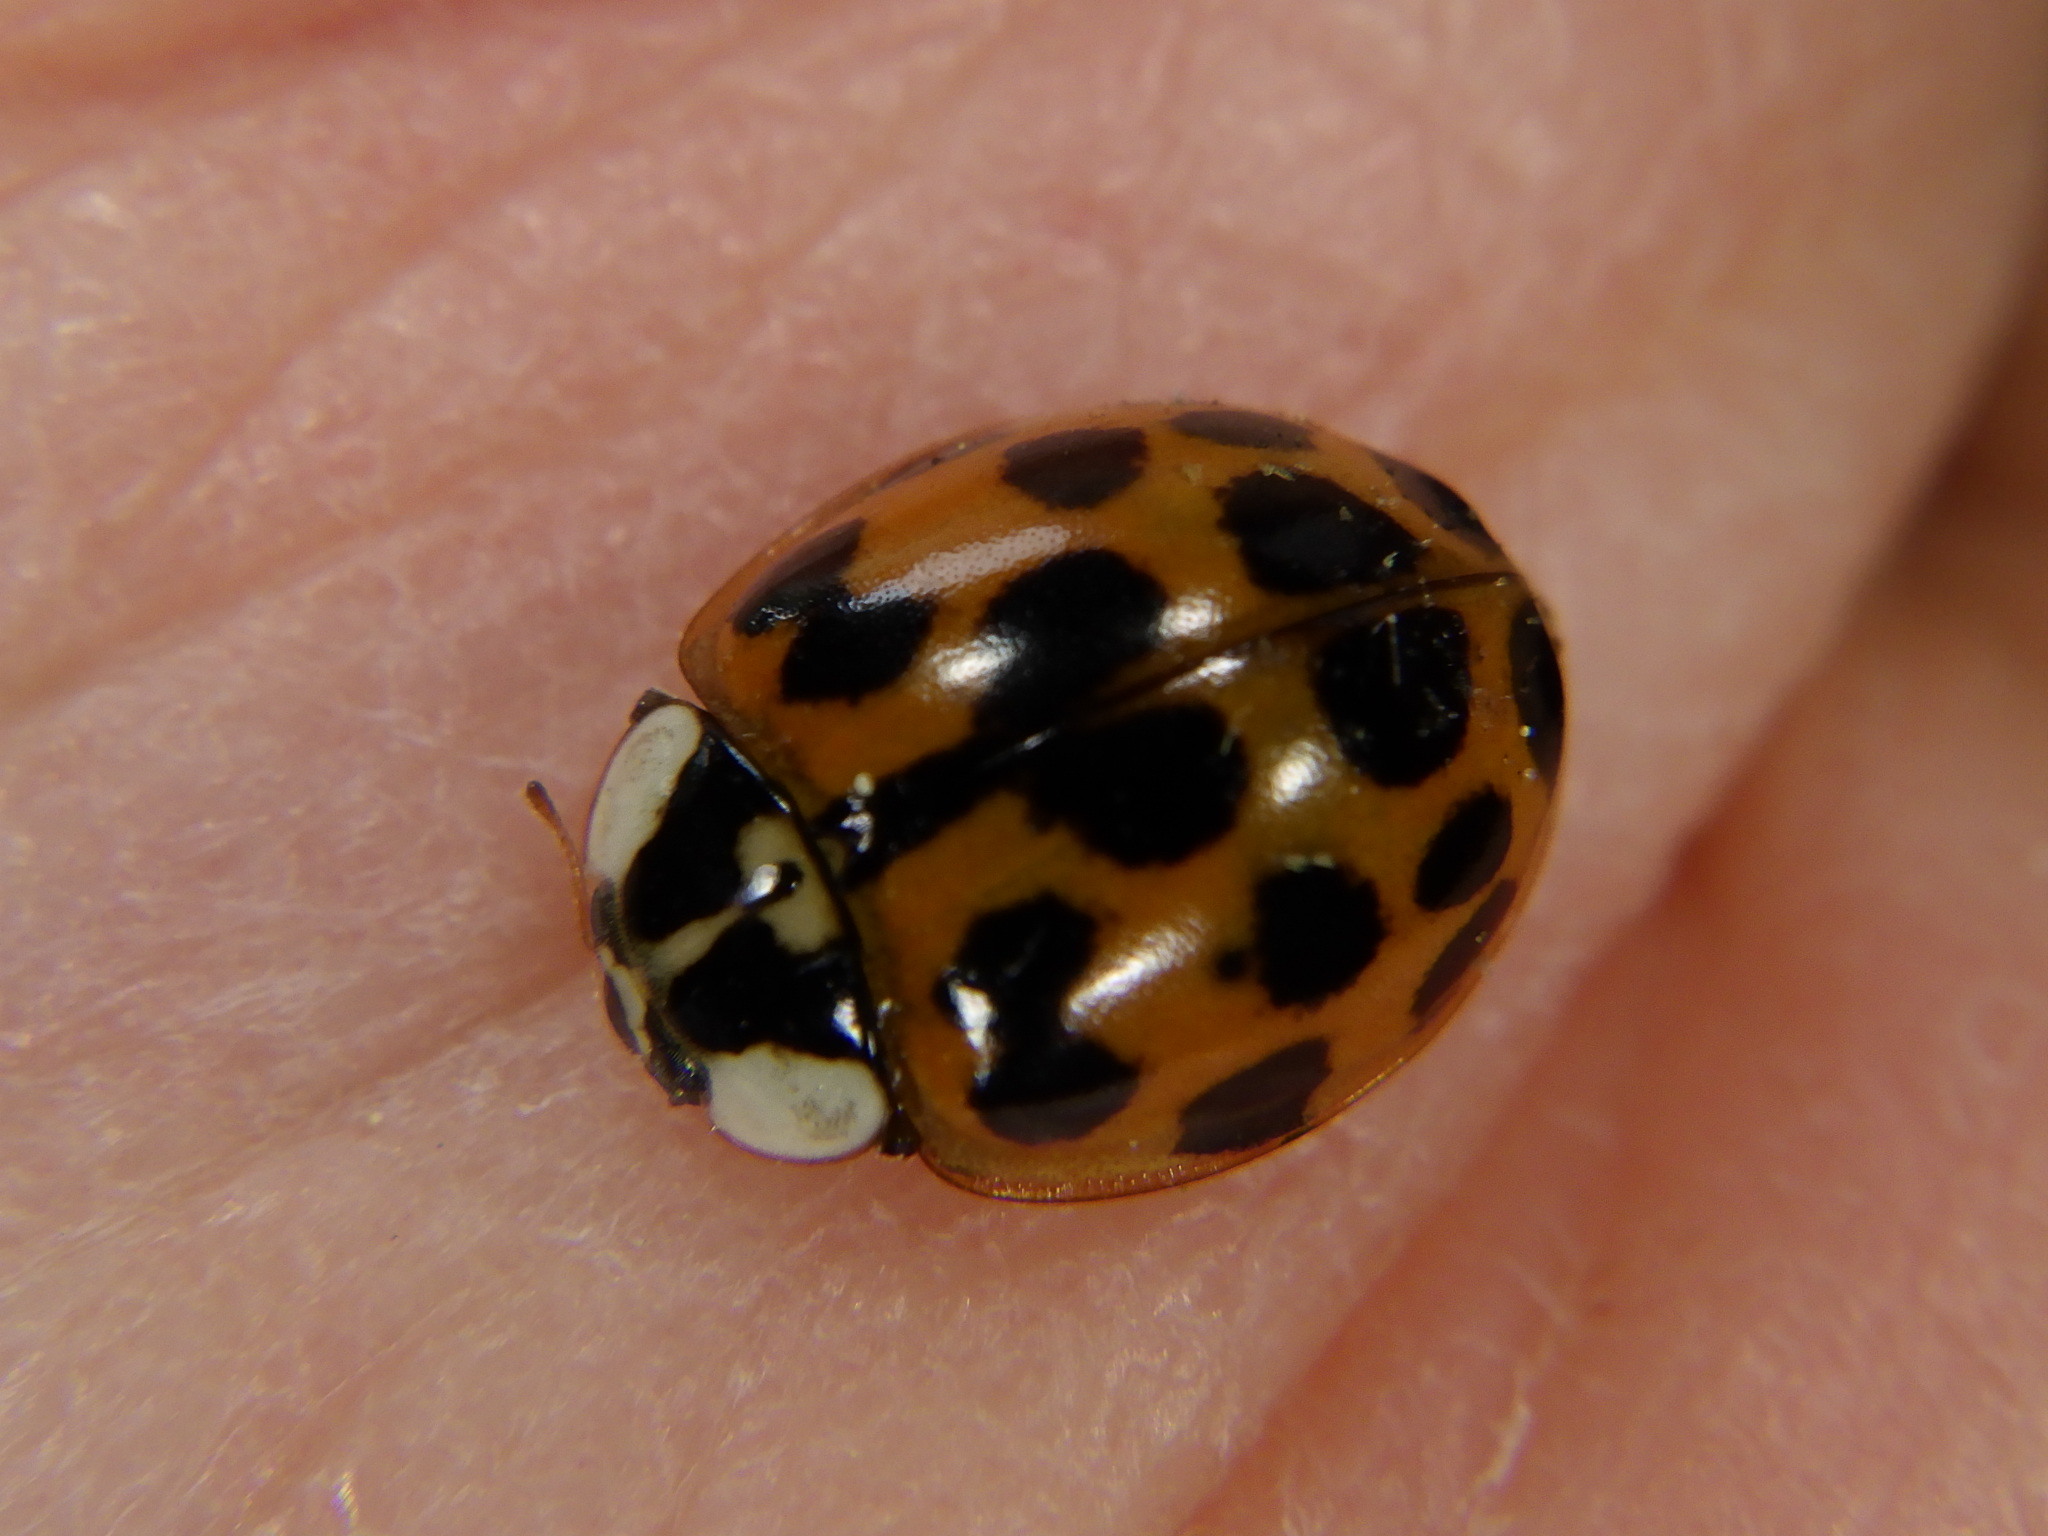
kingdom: Animalia
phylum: Arthropoda
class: Insecta
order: Coleoptera
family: Coccinellidae
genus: Harmonia
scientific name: Harmonia axyridis
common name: Harlequin ladybird
